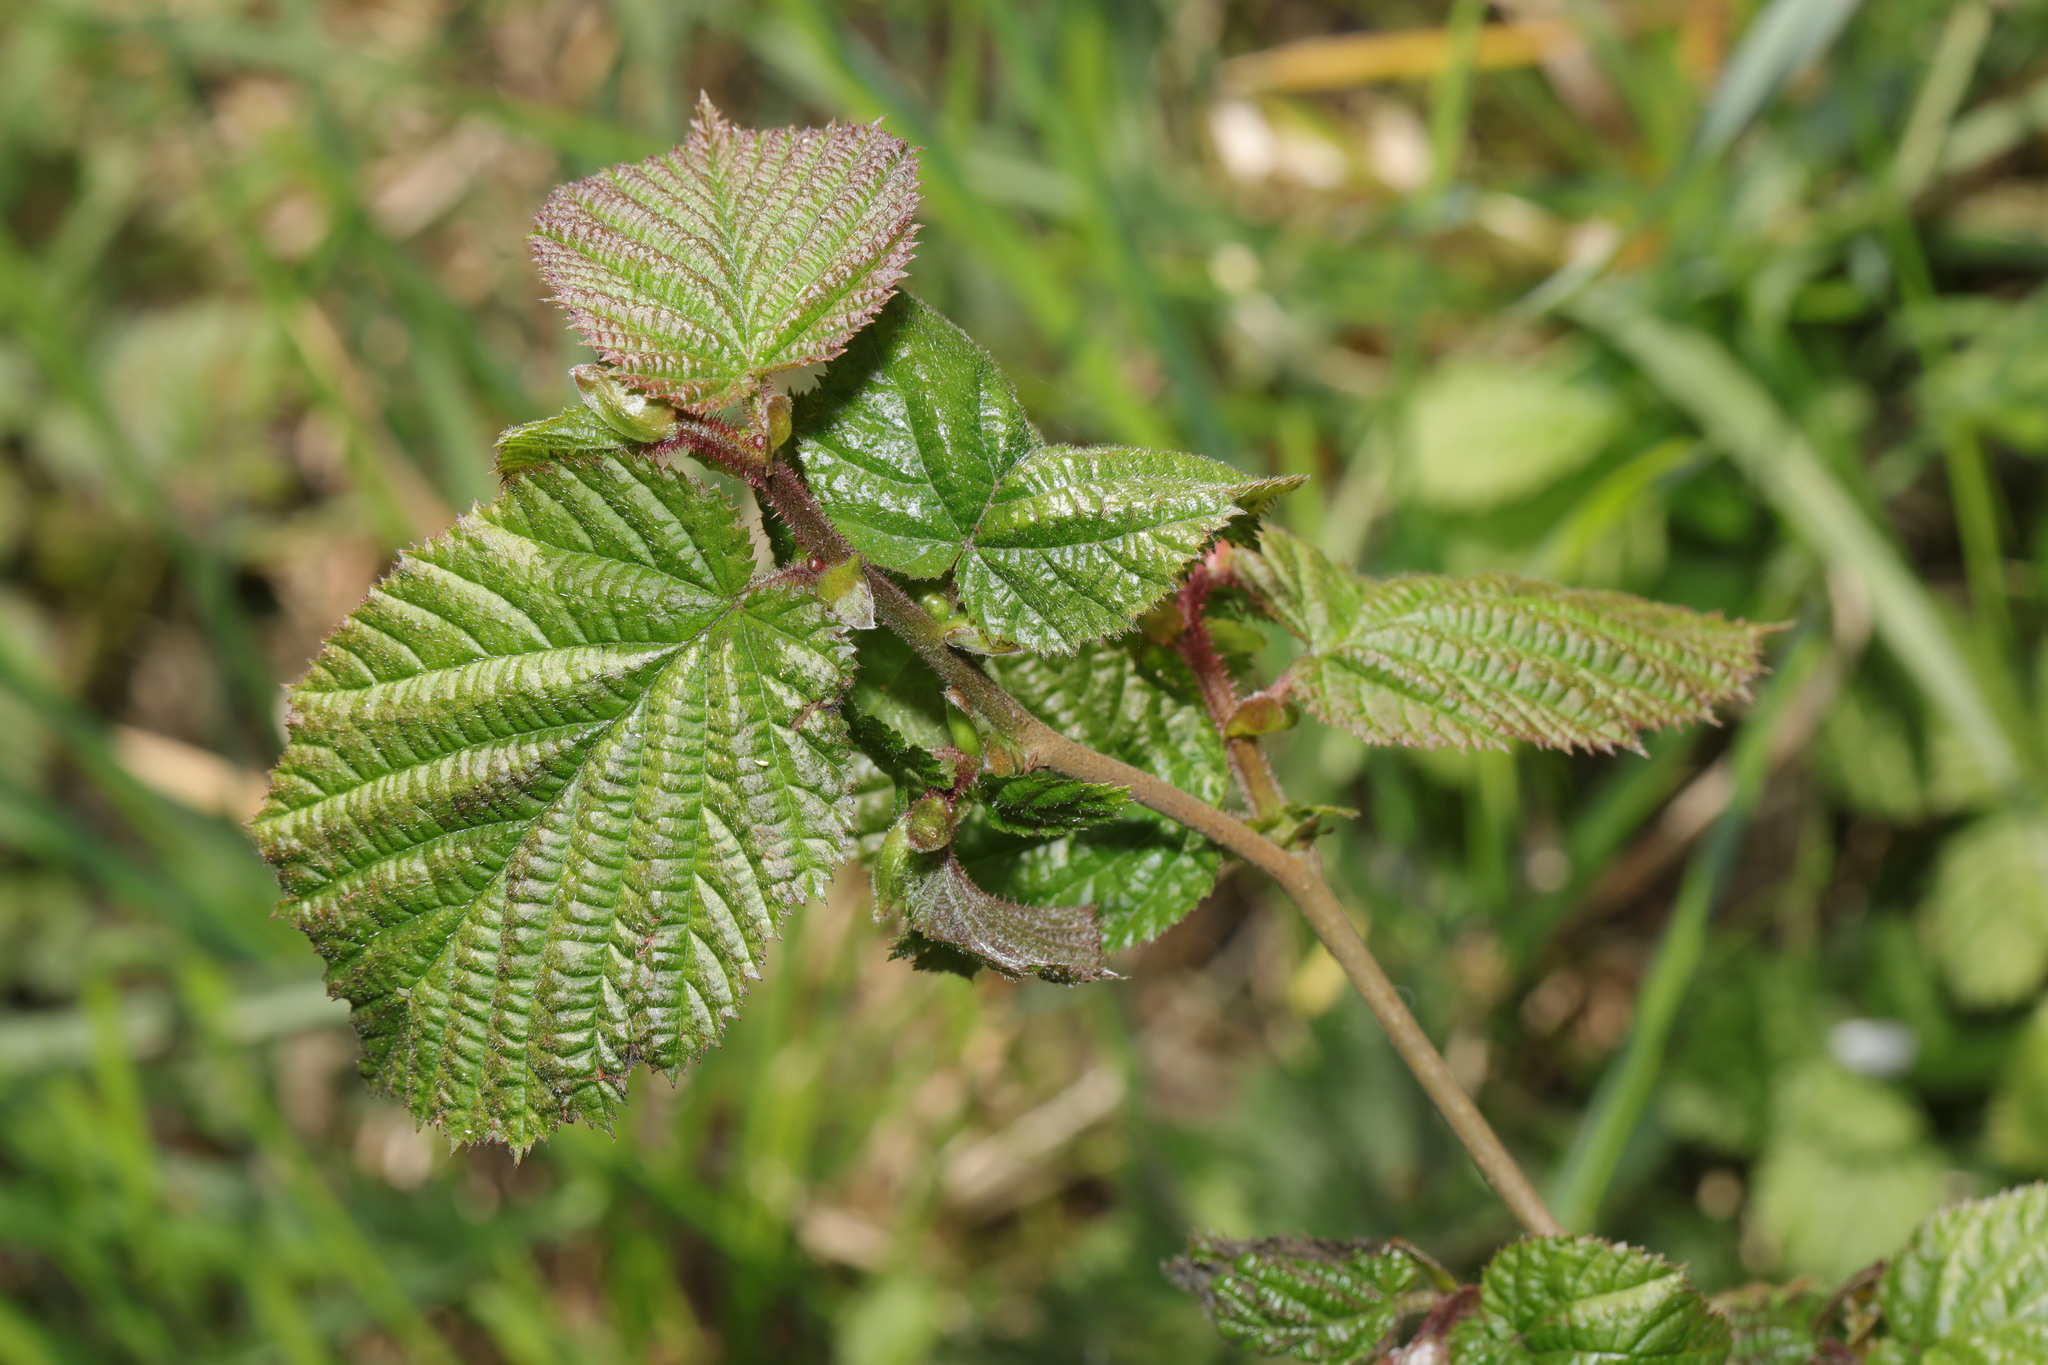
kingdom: Plantae
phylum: Tracheophyta
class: Magnoliopsida
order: Fagales
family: Betulaceae
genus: Corylus
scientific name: Corylus avellana
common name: European hazel
